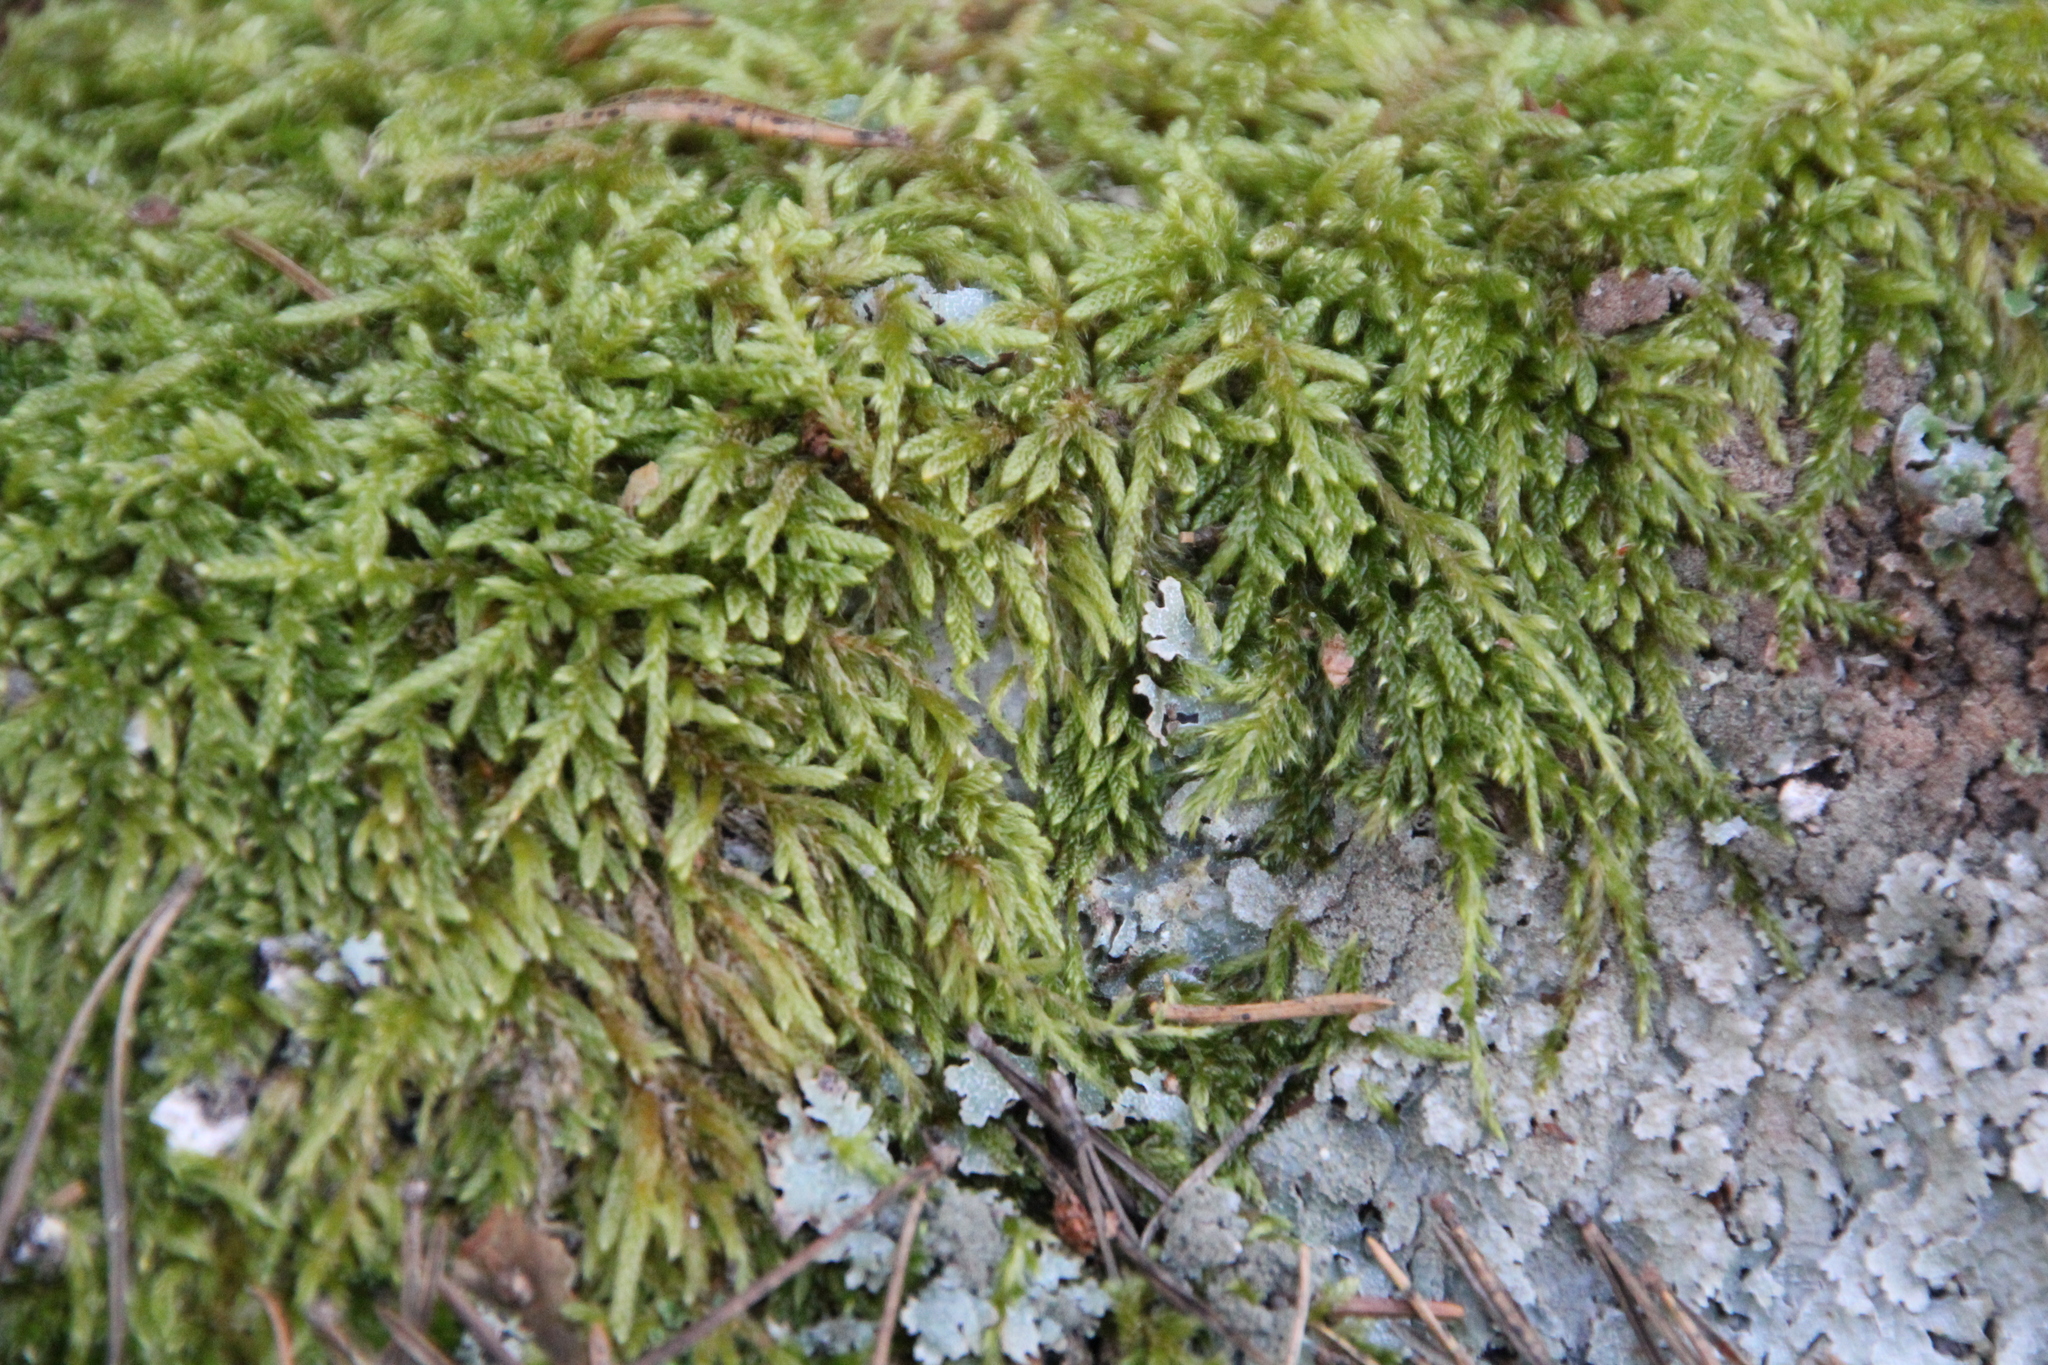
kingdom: Plantae
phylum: Bryophyta
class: Bryopsida
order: Hypnales
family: Hypnaceae
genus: Hypnum
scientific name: Hypnum cupressiforme
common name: Cypress-leaved plait-moss
